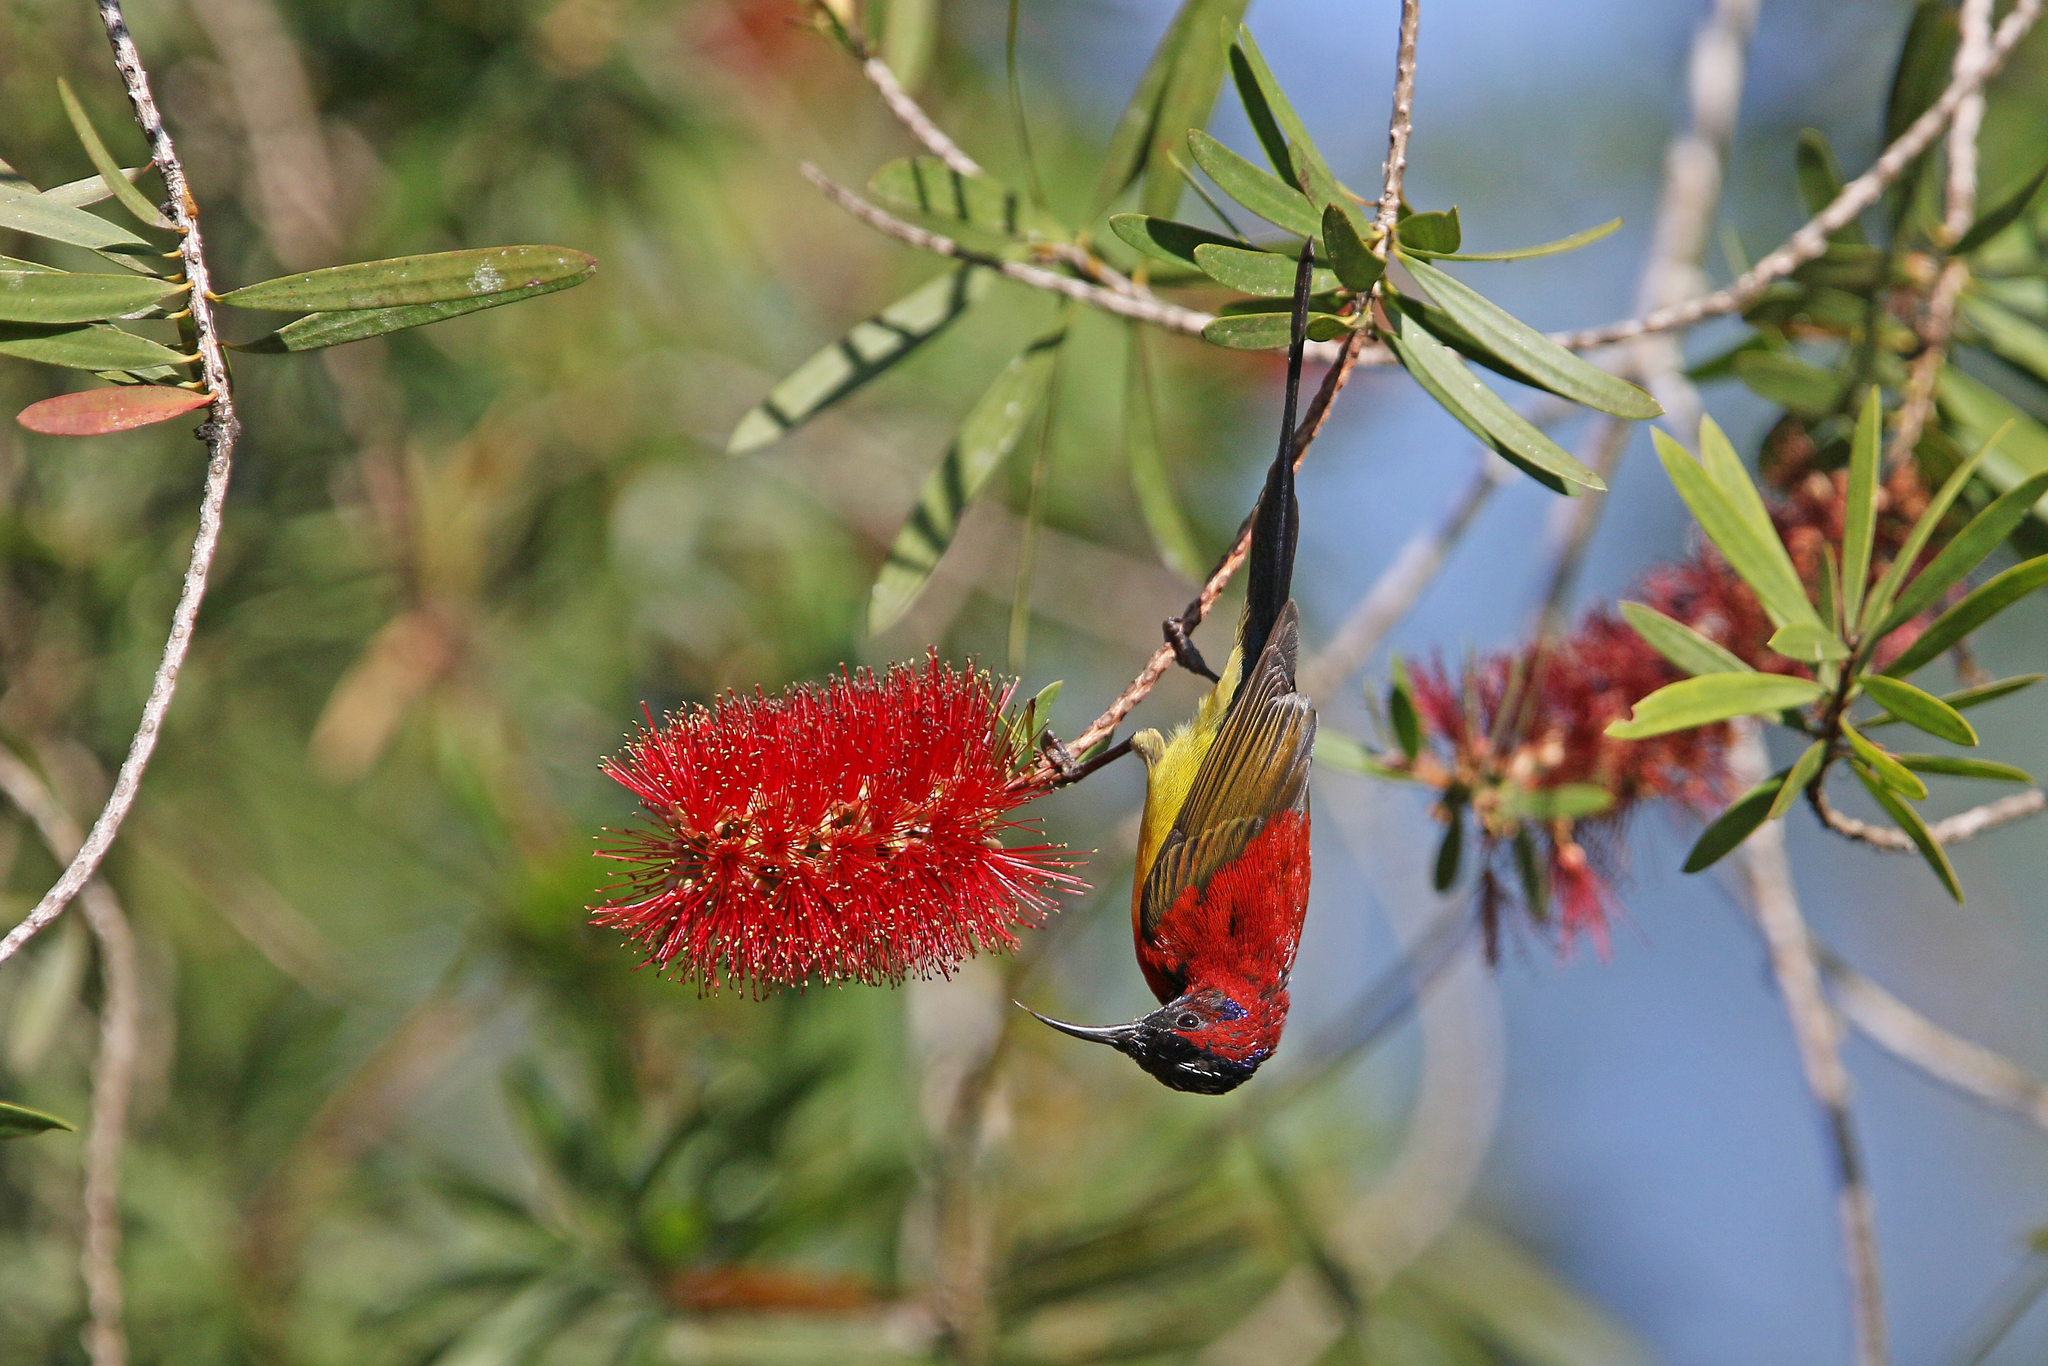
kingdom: Animalia
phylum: Chordata
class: Aves
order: Passeriformes
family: Nectariniidae
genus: Aethopyga
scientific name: Aethopyga gouldiae
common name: Mrs. gould's sunbird
